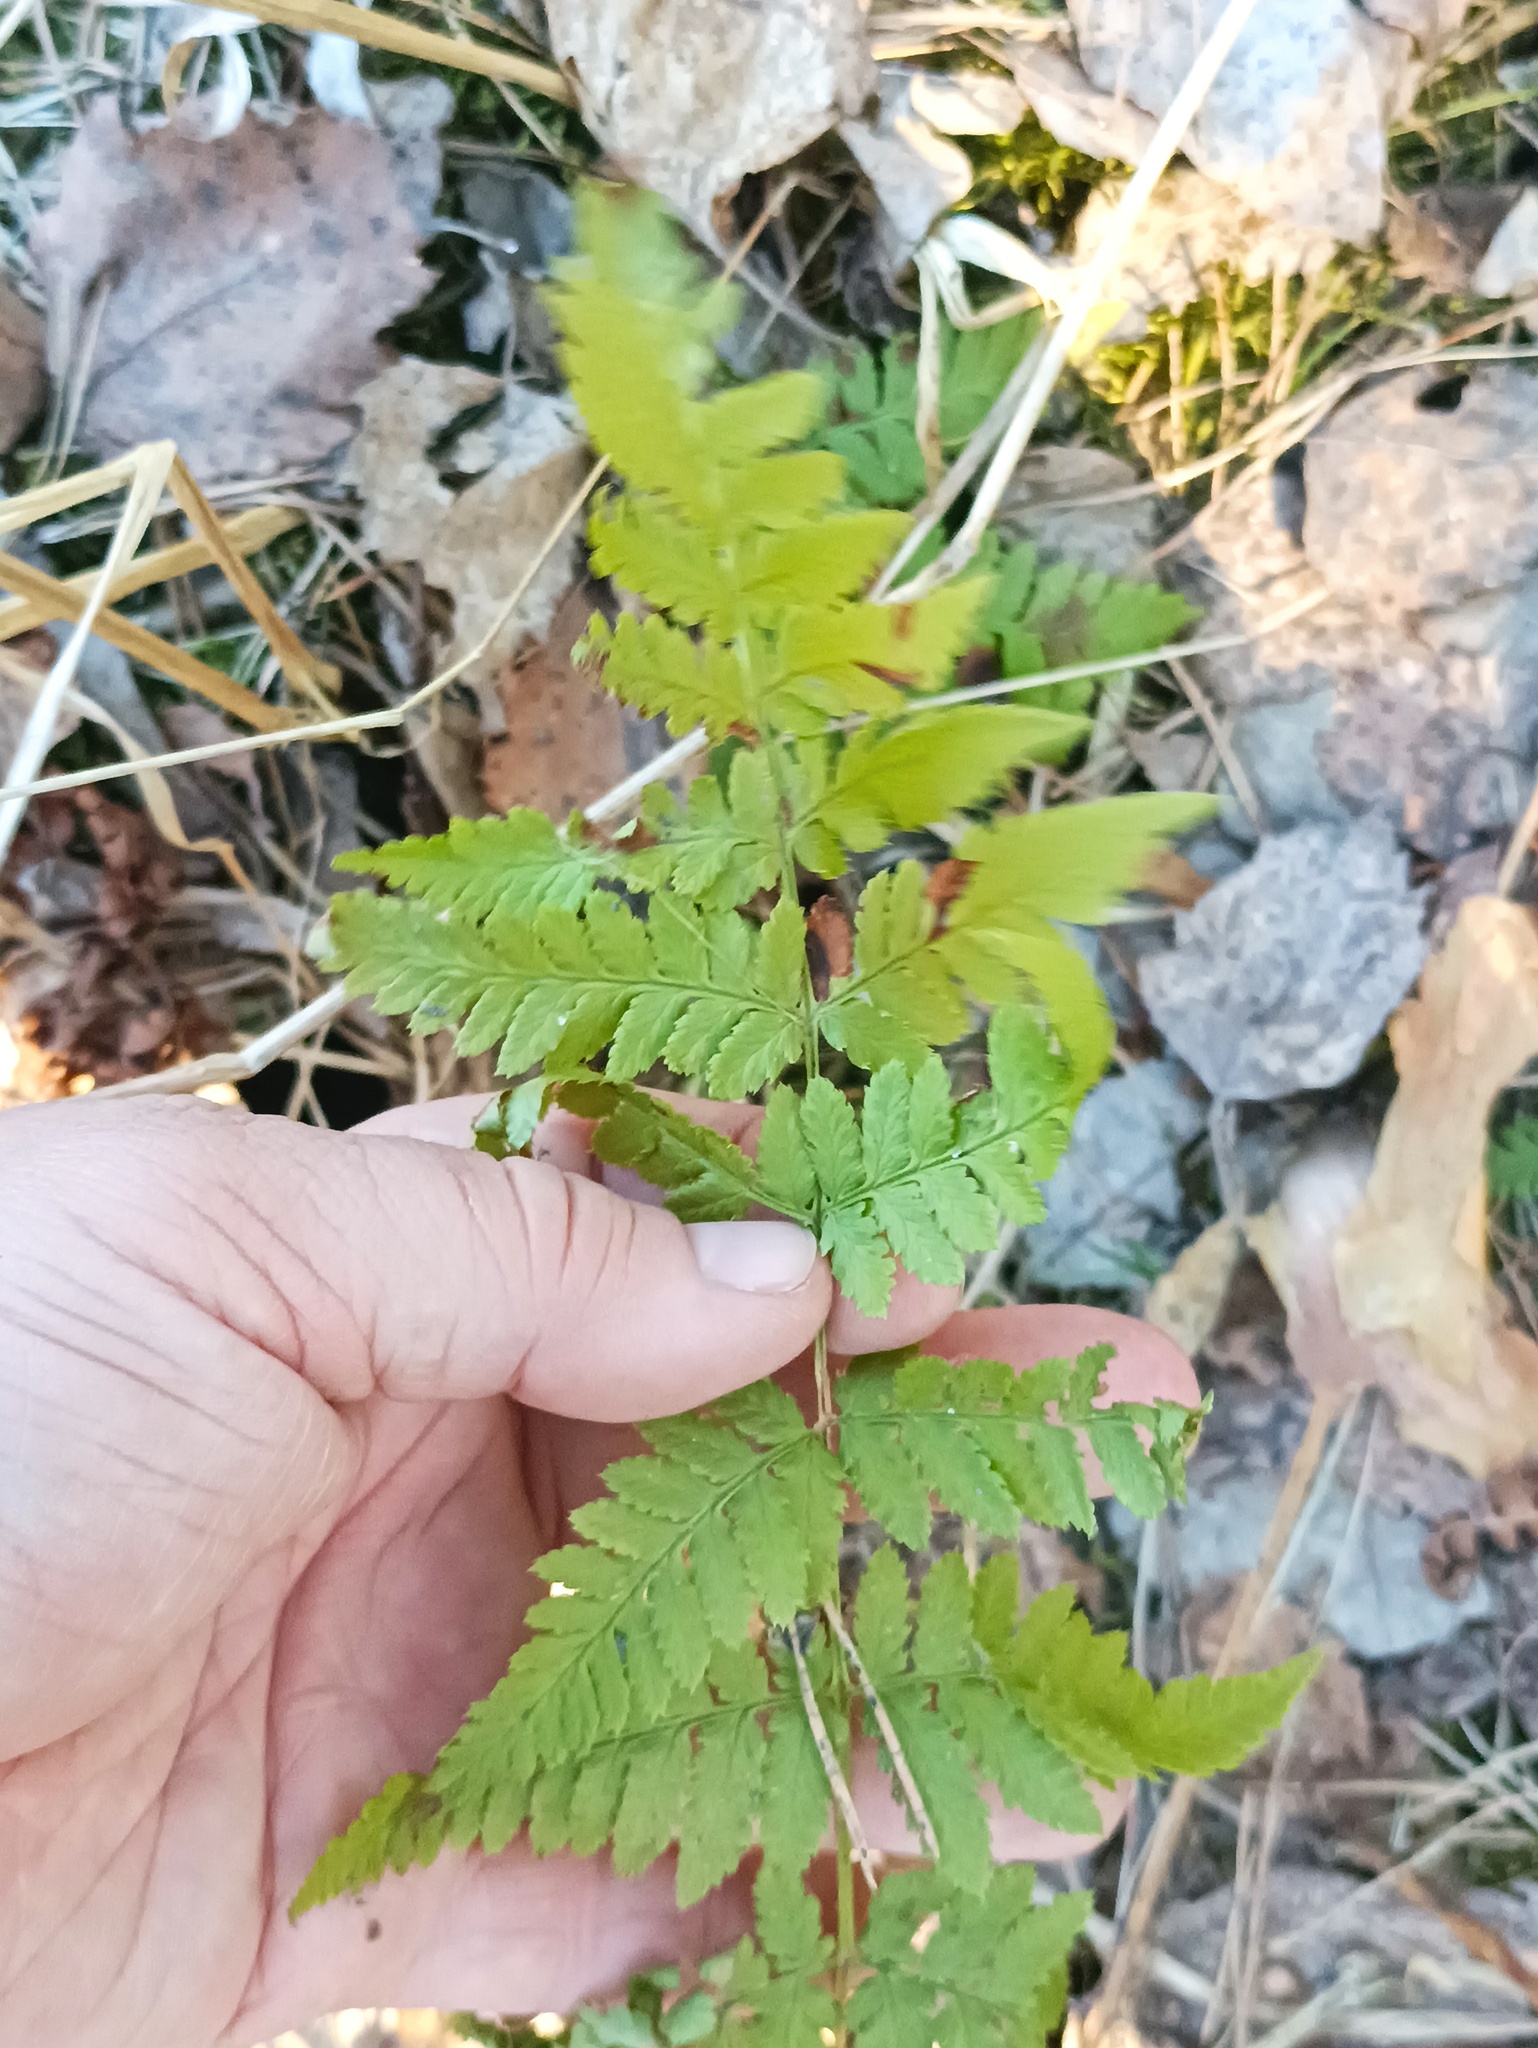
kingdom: Plantae
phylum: Tracheophyta
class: Polypodiopsida
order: Polypodiales
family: Dryopteridaceae
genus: Dryopteris
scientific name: Dryopteris carthusiana
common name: Narrow buckler-fern
